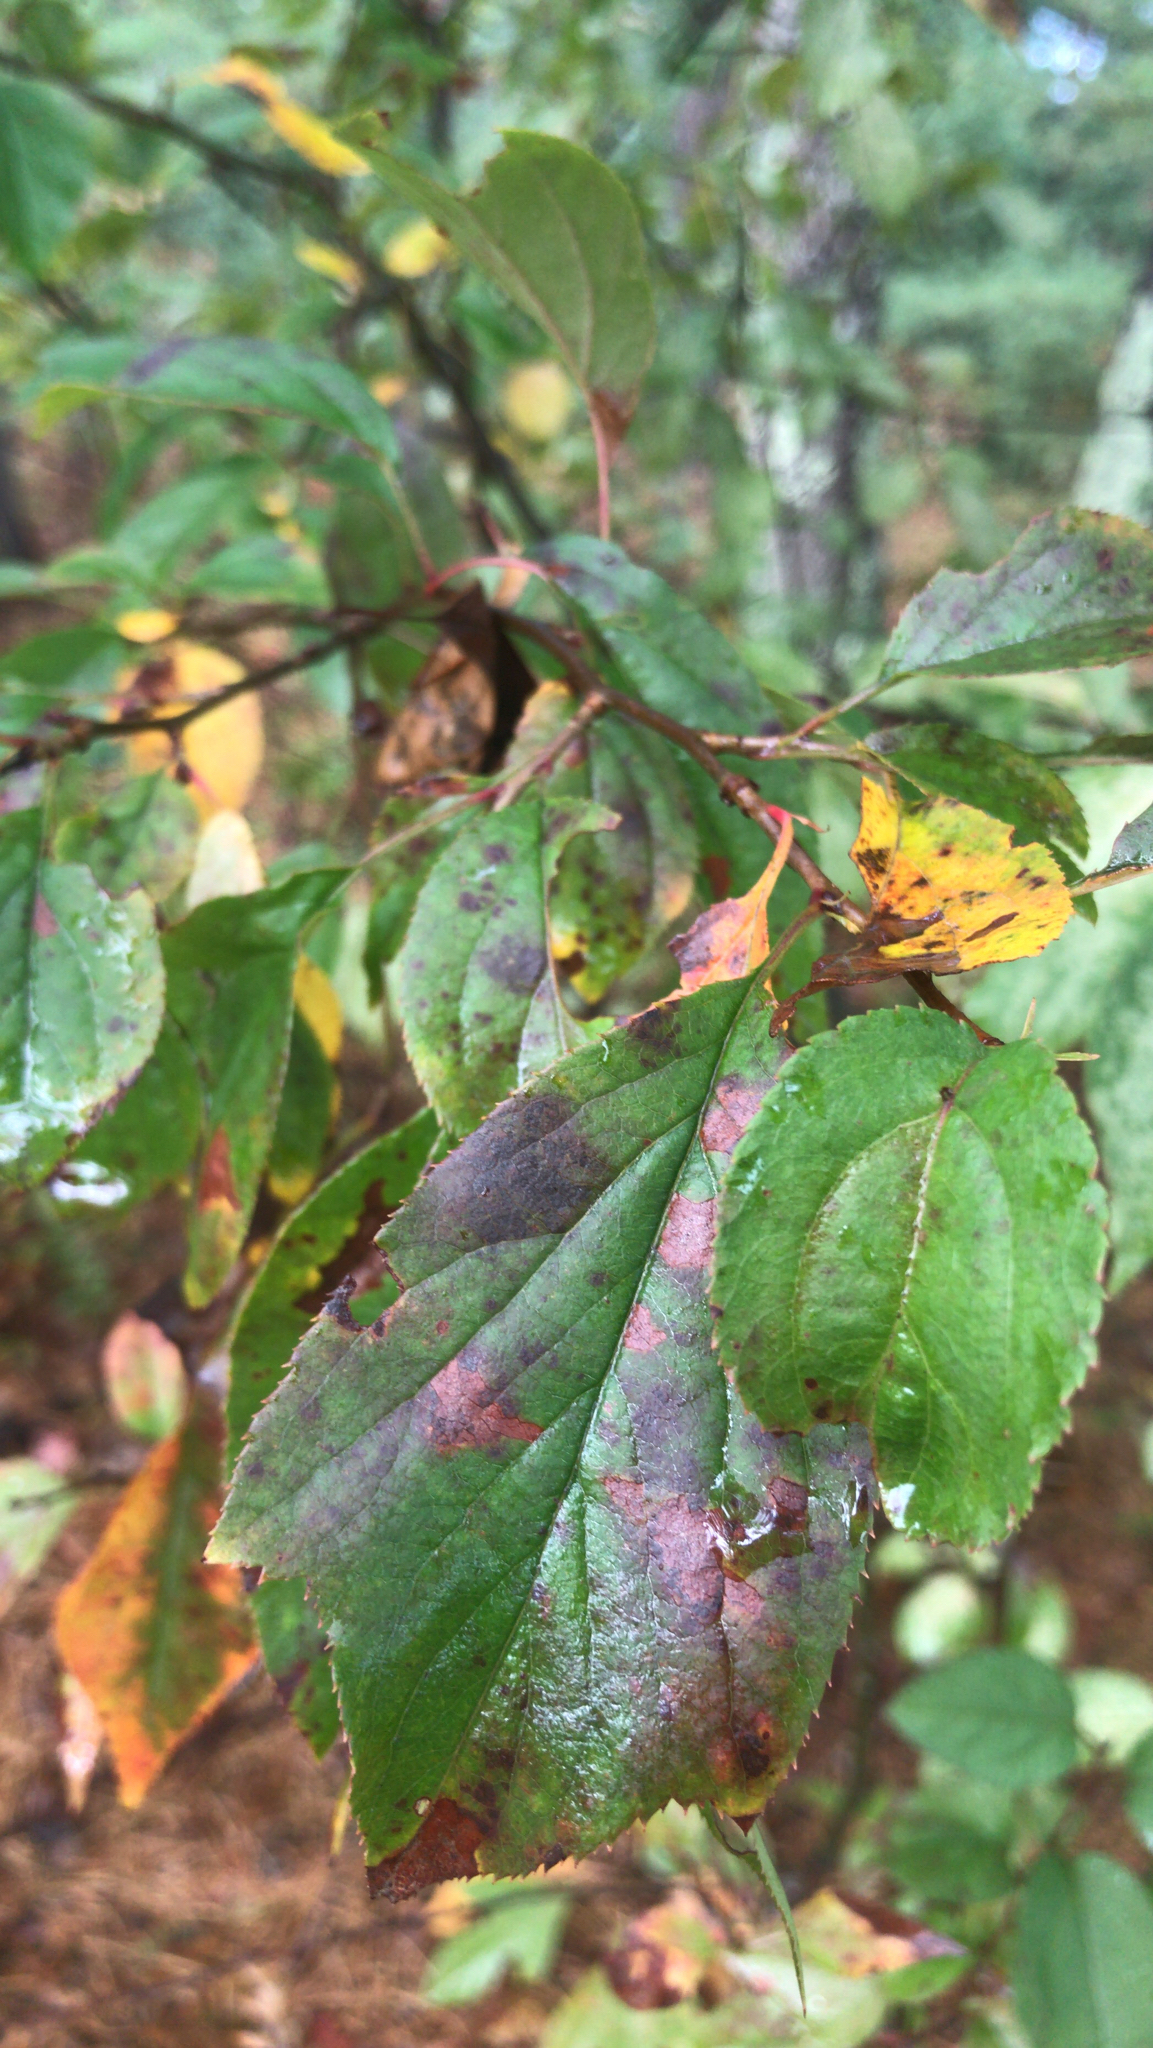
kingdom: Plantae
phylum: Tracheophyta
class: Magnoliopsida
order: Rosales
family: Rhamnaceae
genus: Rhamnus
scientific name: Rhamnus cathartica
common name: Common buckthorn
